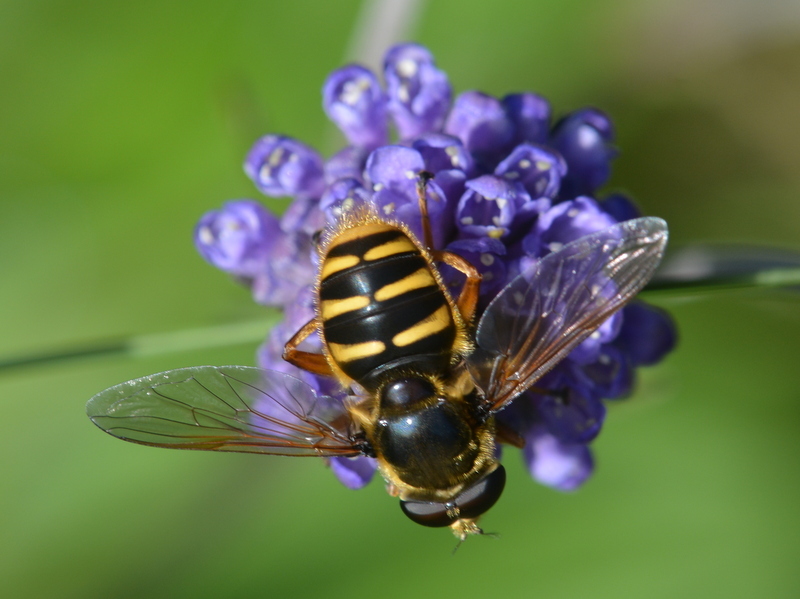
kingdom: Animalia
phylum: Arthropoda
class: Insecta
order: Diptera
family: Syrphidae
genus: Sericomyia
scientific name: Sericomyia silentis
